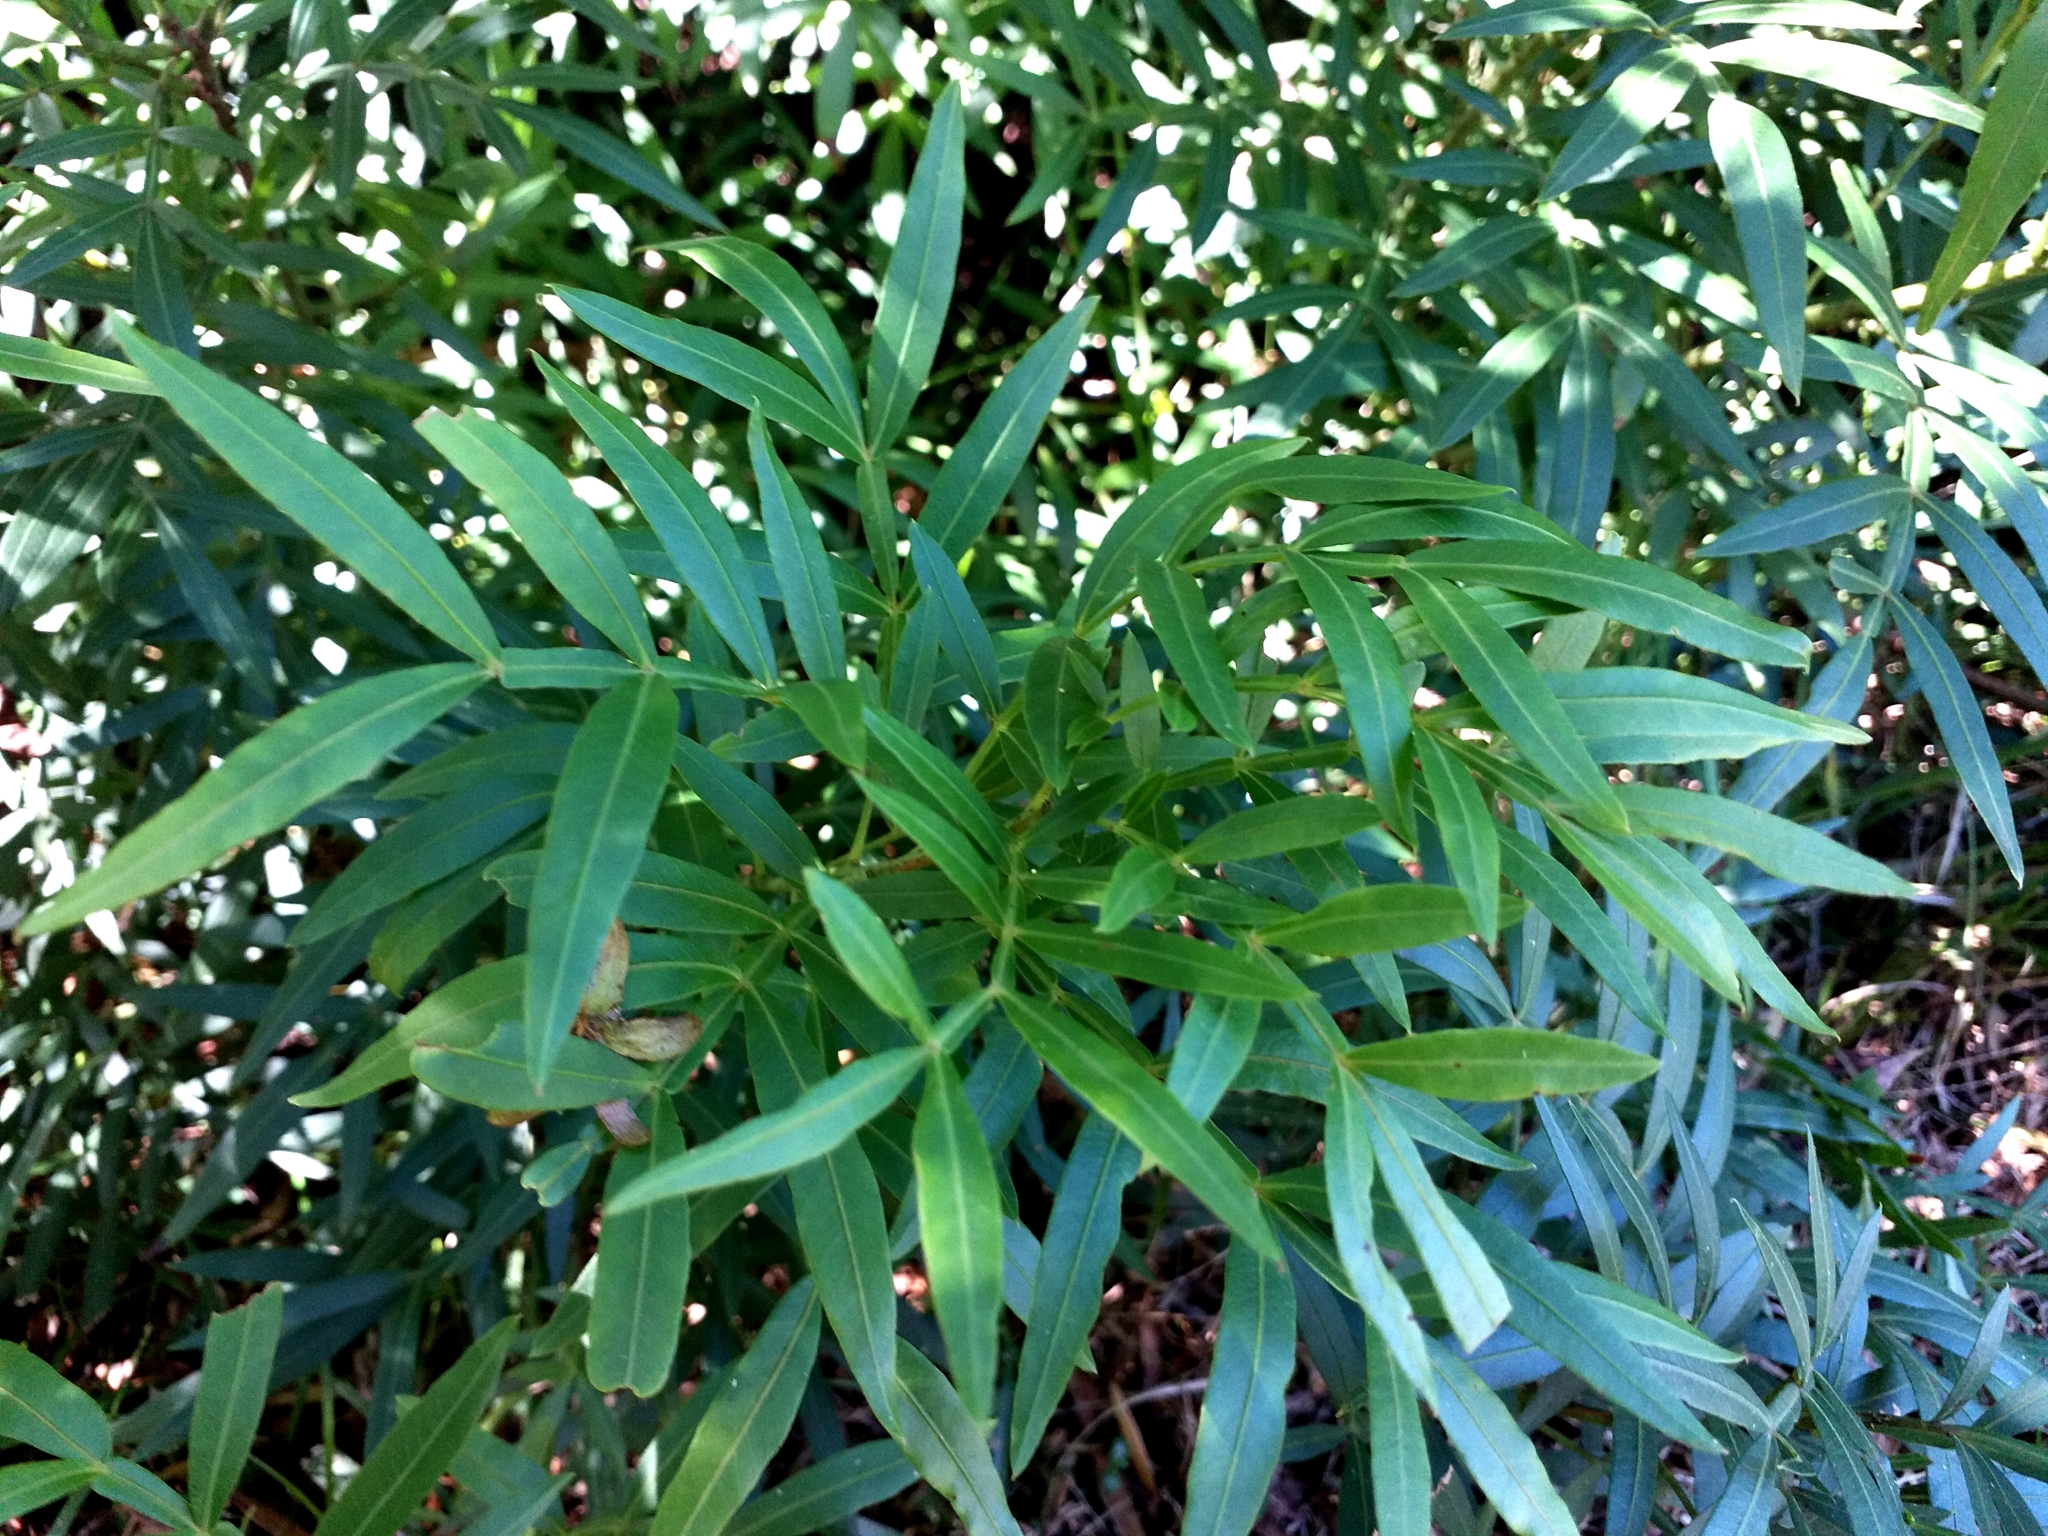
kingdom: Plantae
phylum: Tracheophyta
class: Magnoliopsida
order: Sapindales
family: Anacardiaceae
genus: Loxostylis
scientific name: Loxostylis alata
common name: Wild peppertree
